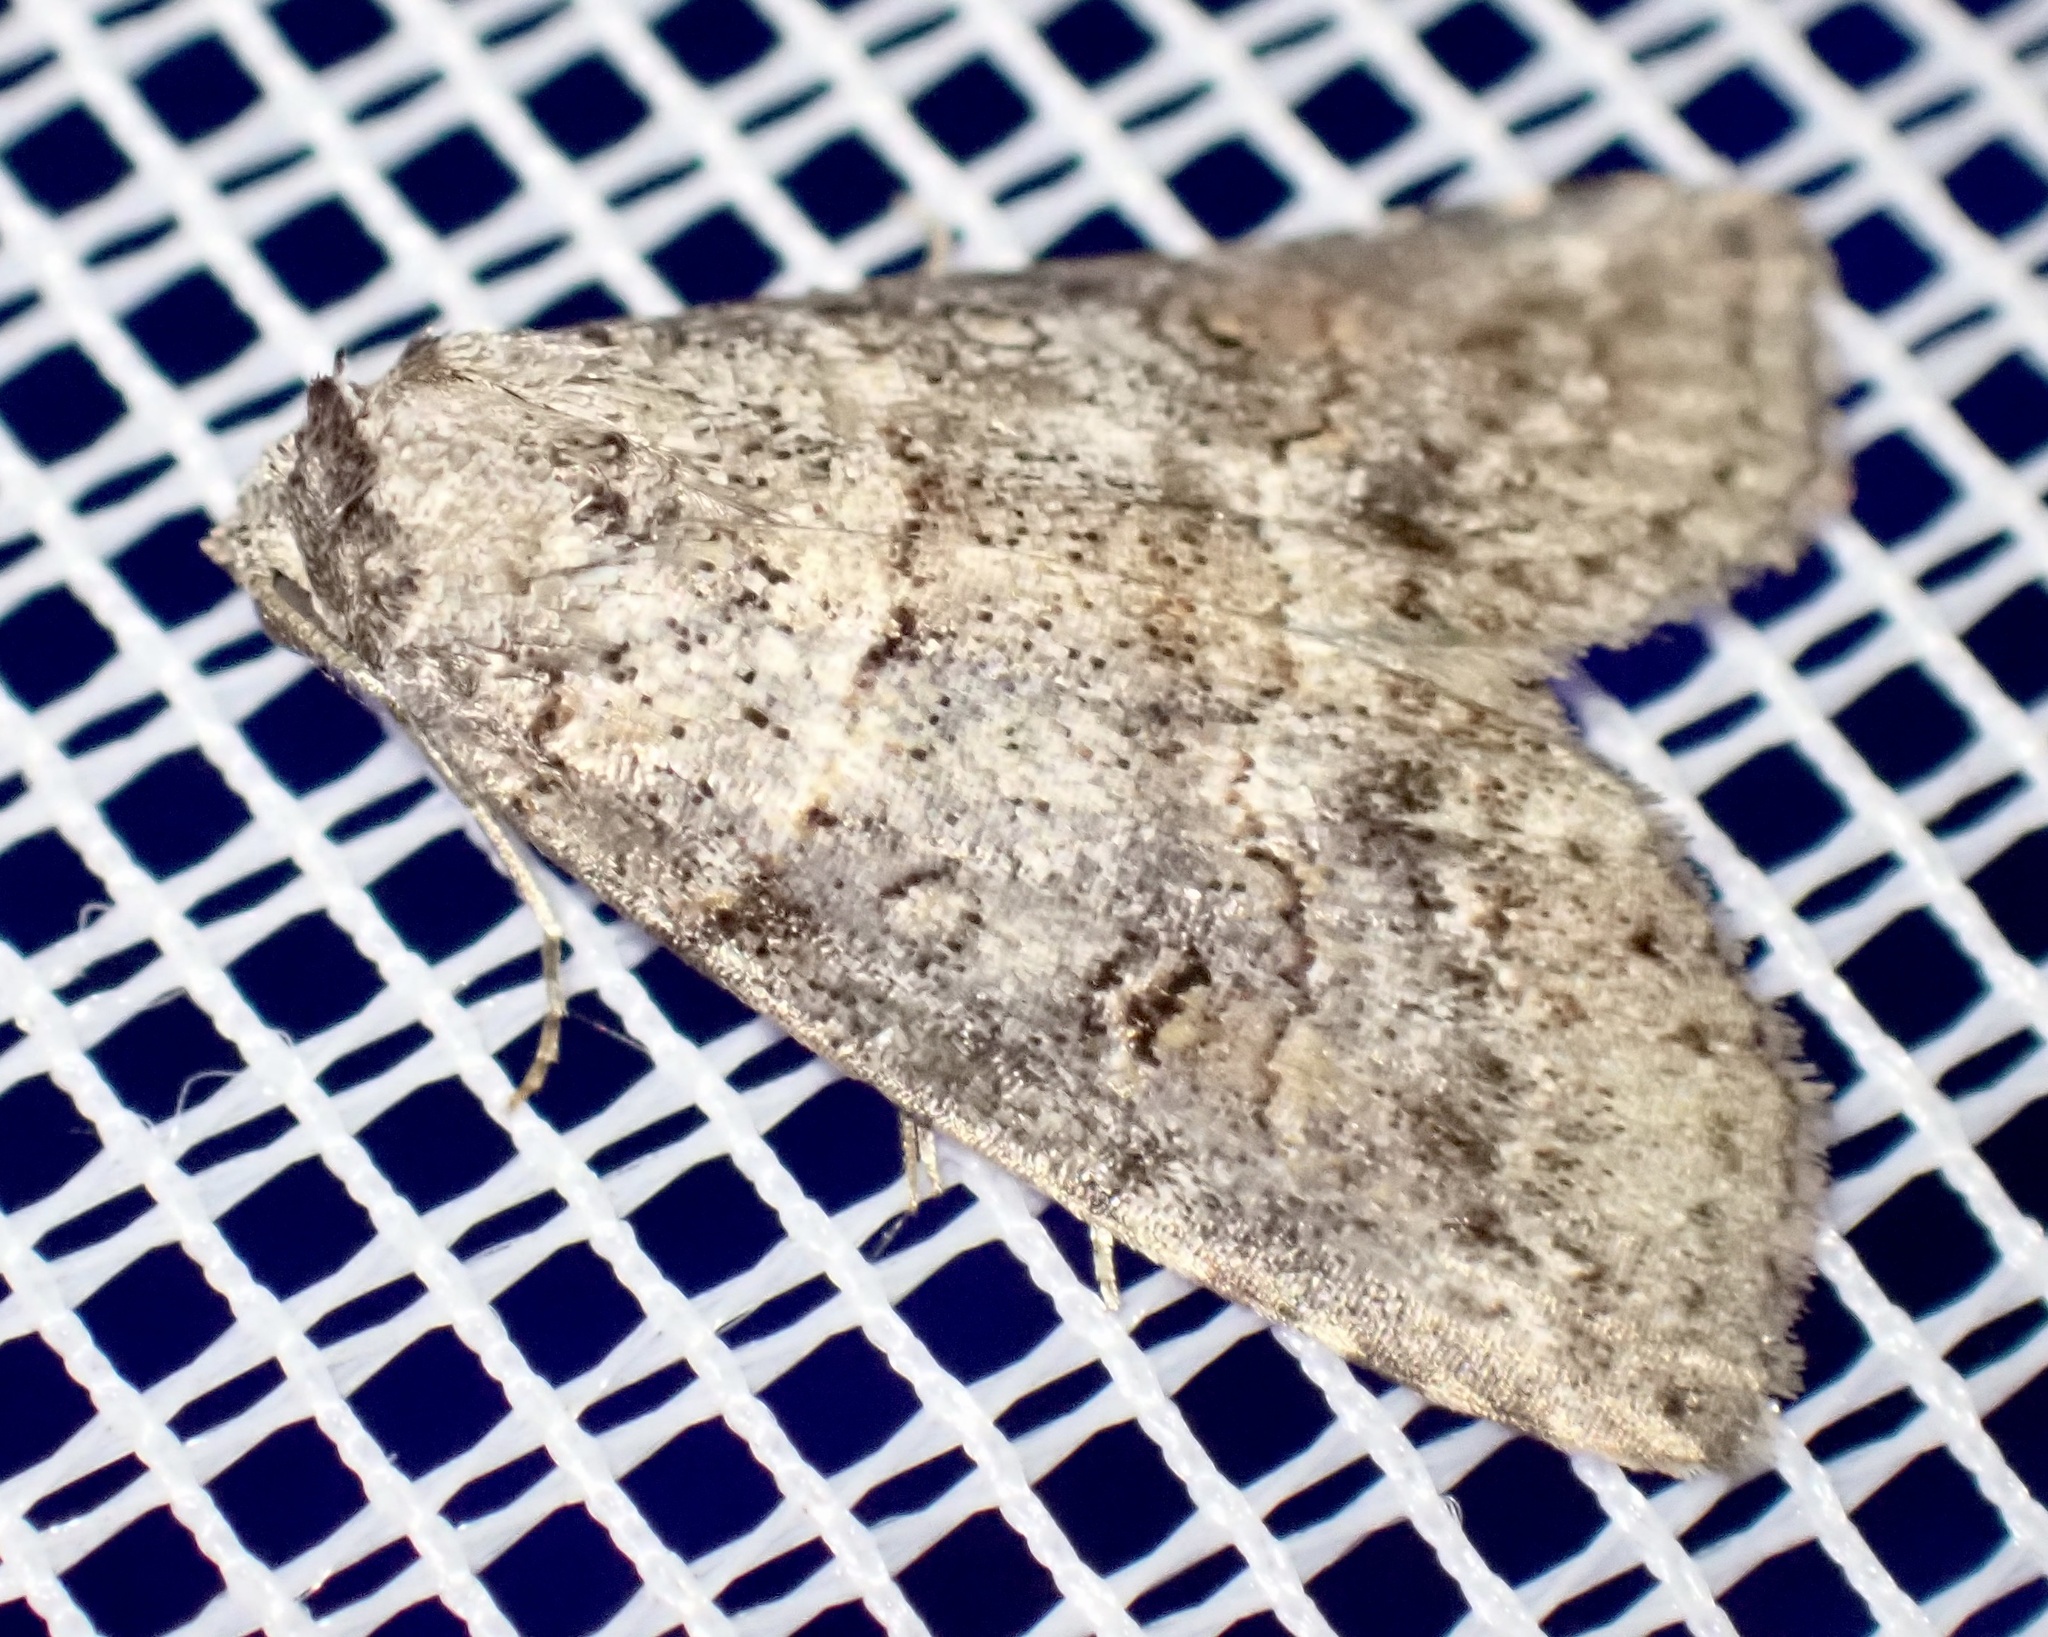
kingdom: Animalia
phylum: Arthropoda
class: Insecta
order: Lepidoptera
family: Nolidae
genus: Calathusa
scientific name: Calathusa hypotherma
